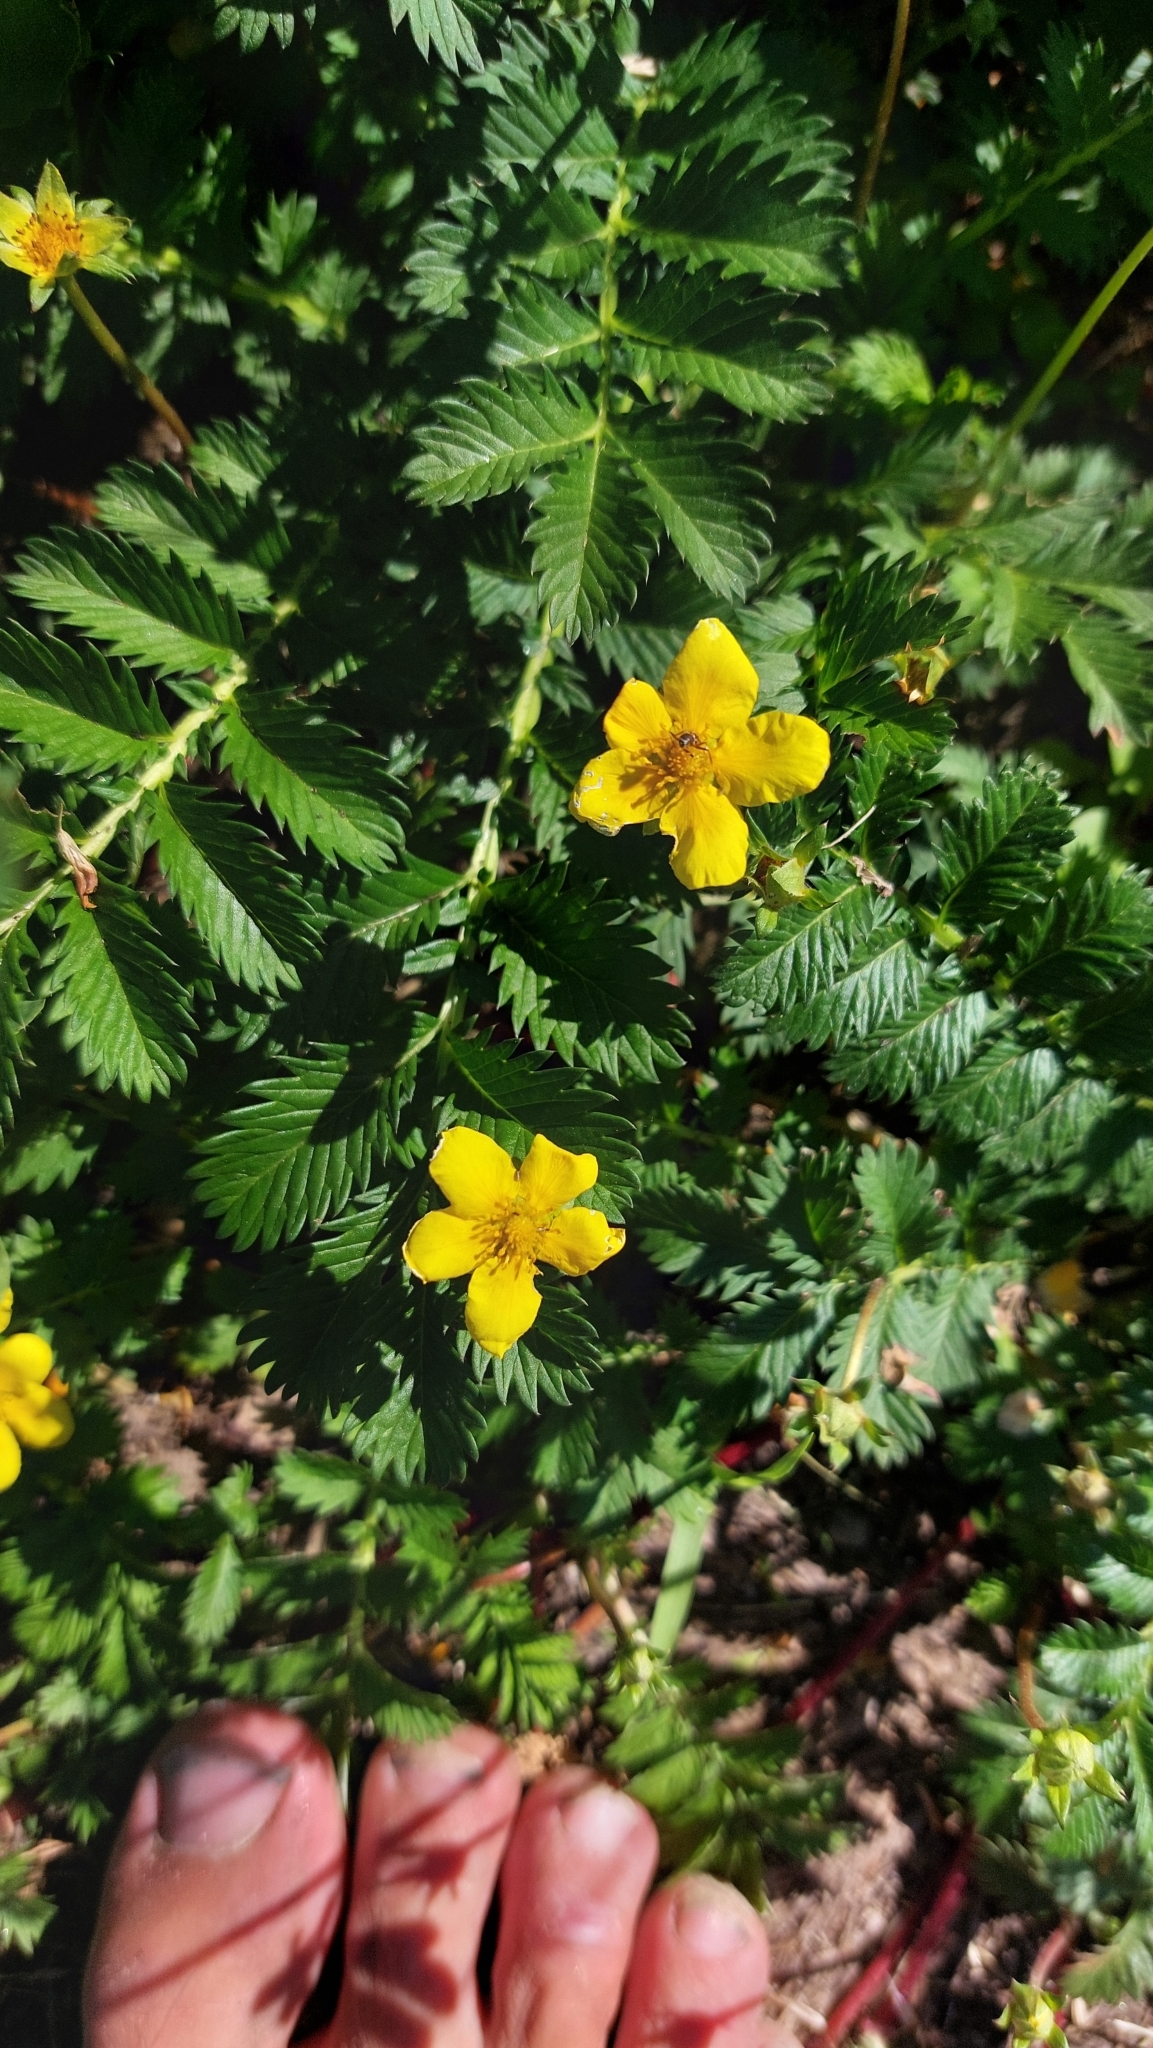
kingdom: Plantae
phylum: Tracheophyta
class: Magnoliopsida
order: Rosales
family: Rosaceae
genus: Argentina
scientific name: Argentina anserina
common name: Common silverweed
